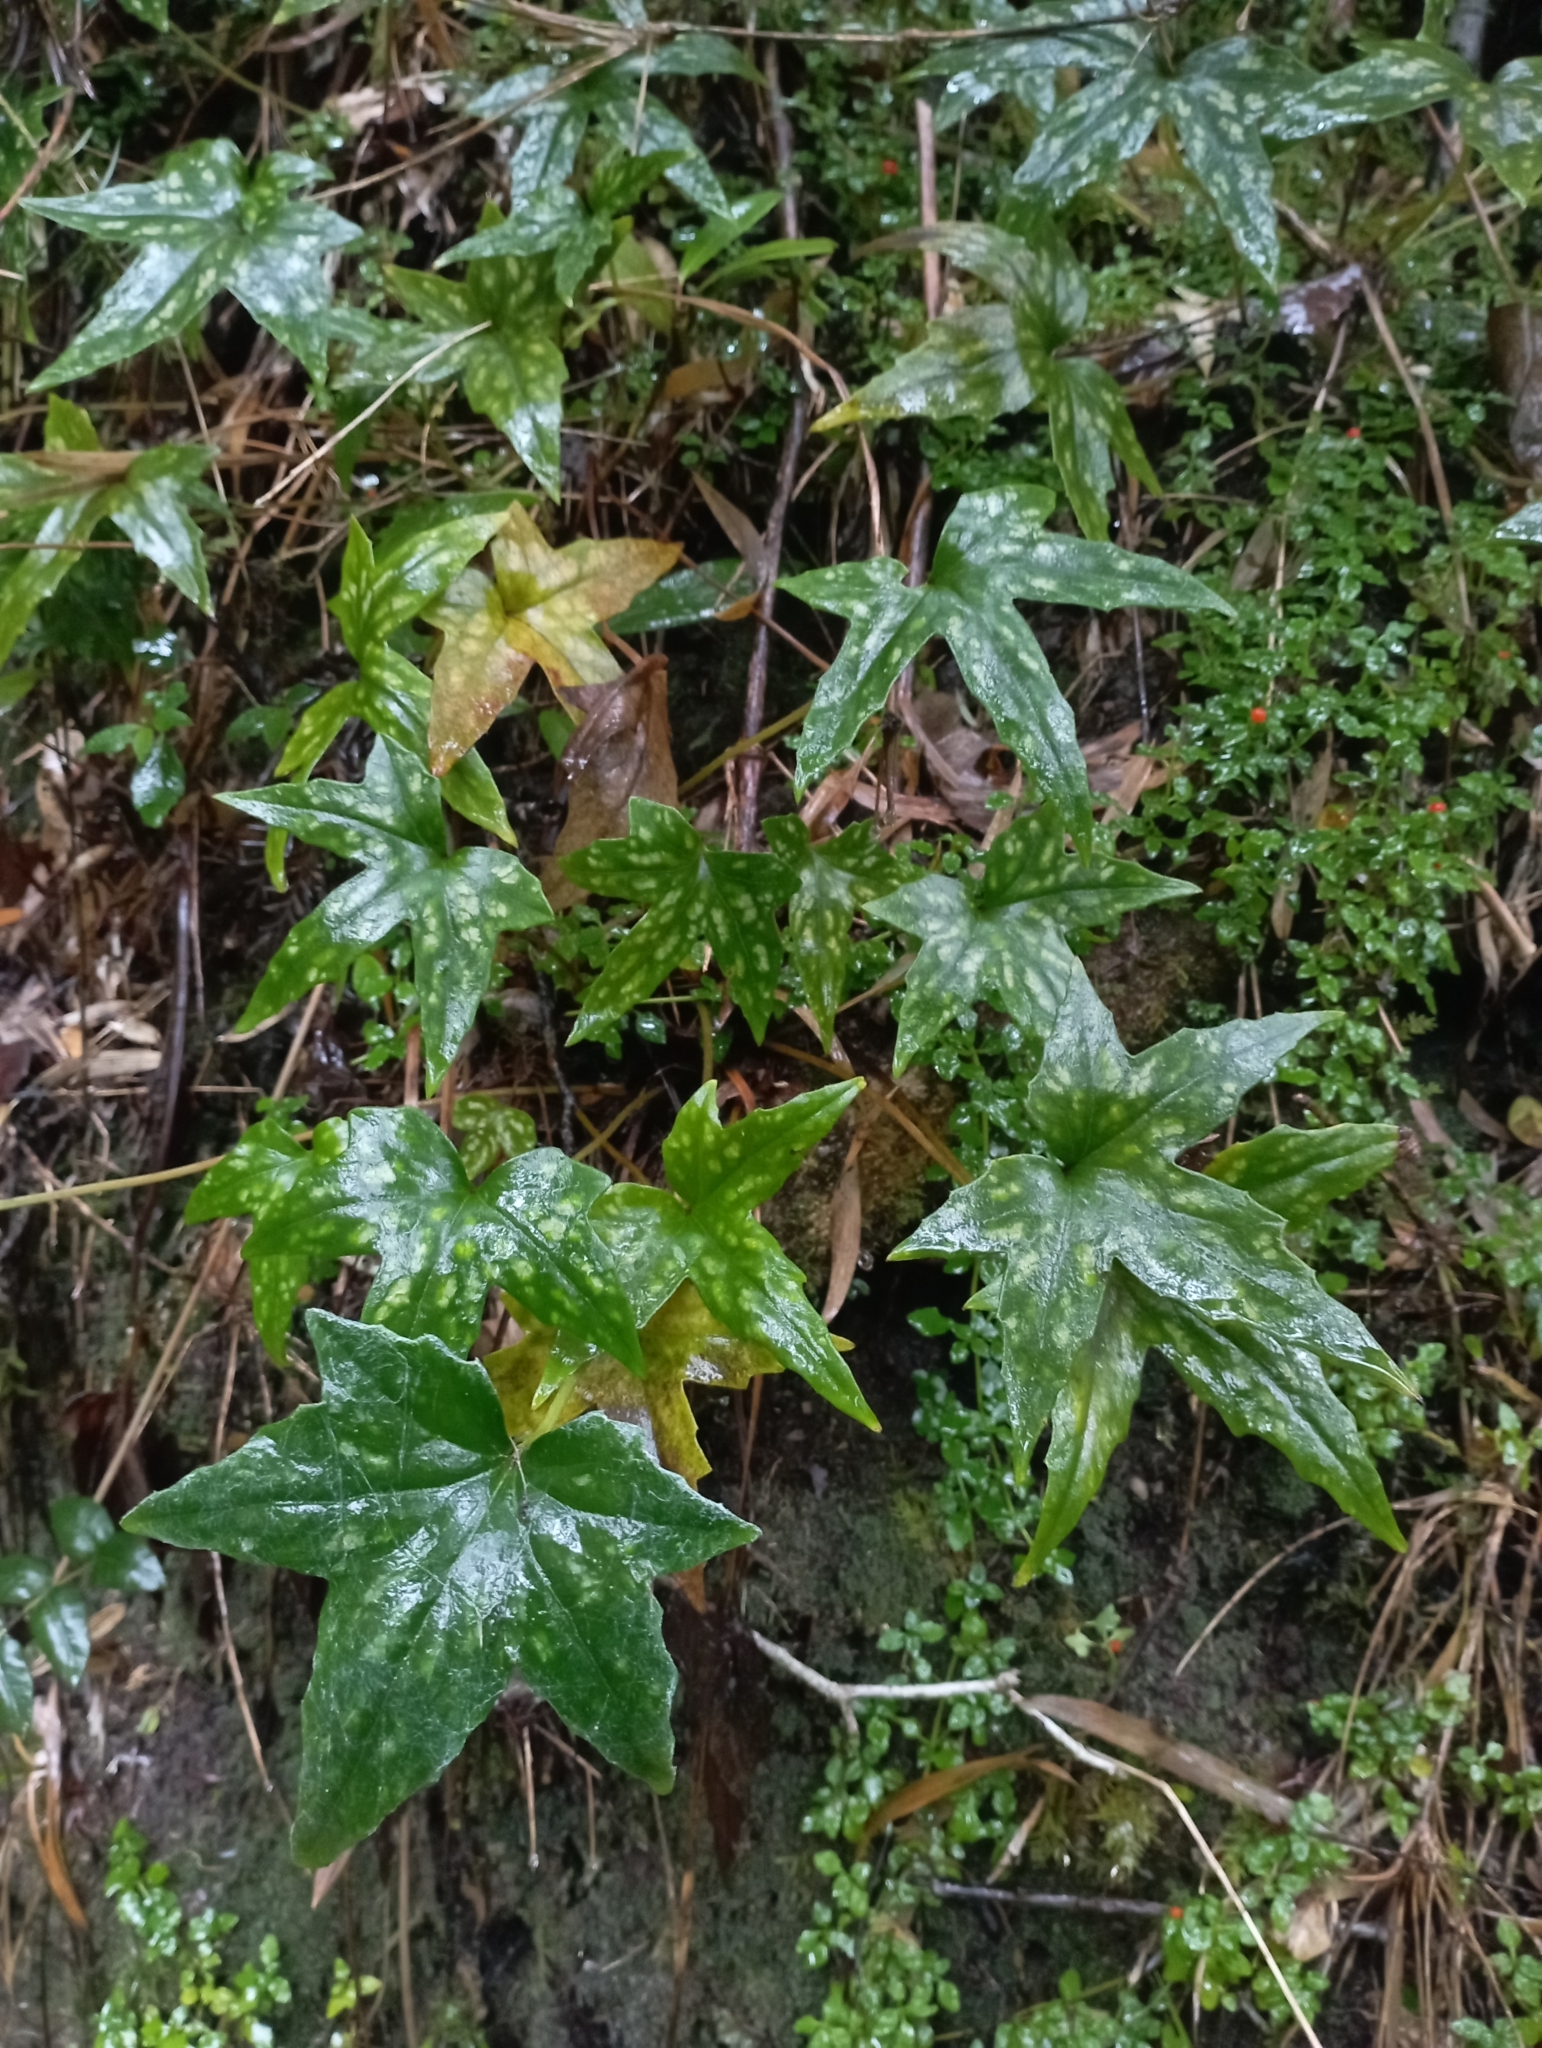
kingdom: Plantae
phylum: Tracheophyta
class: Magnoliopsida
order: Ranunculales
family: Ranunculaceae
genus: Knowltonia
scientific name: Knowltonia hepaticifolia
